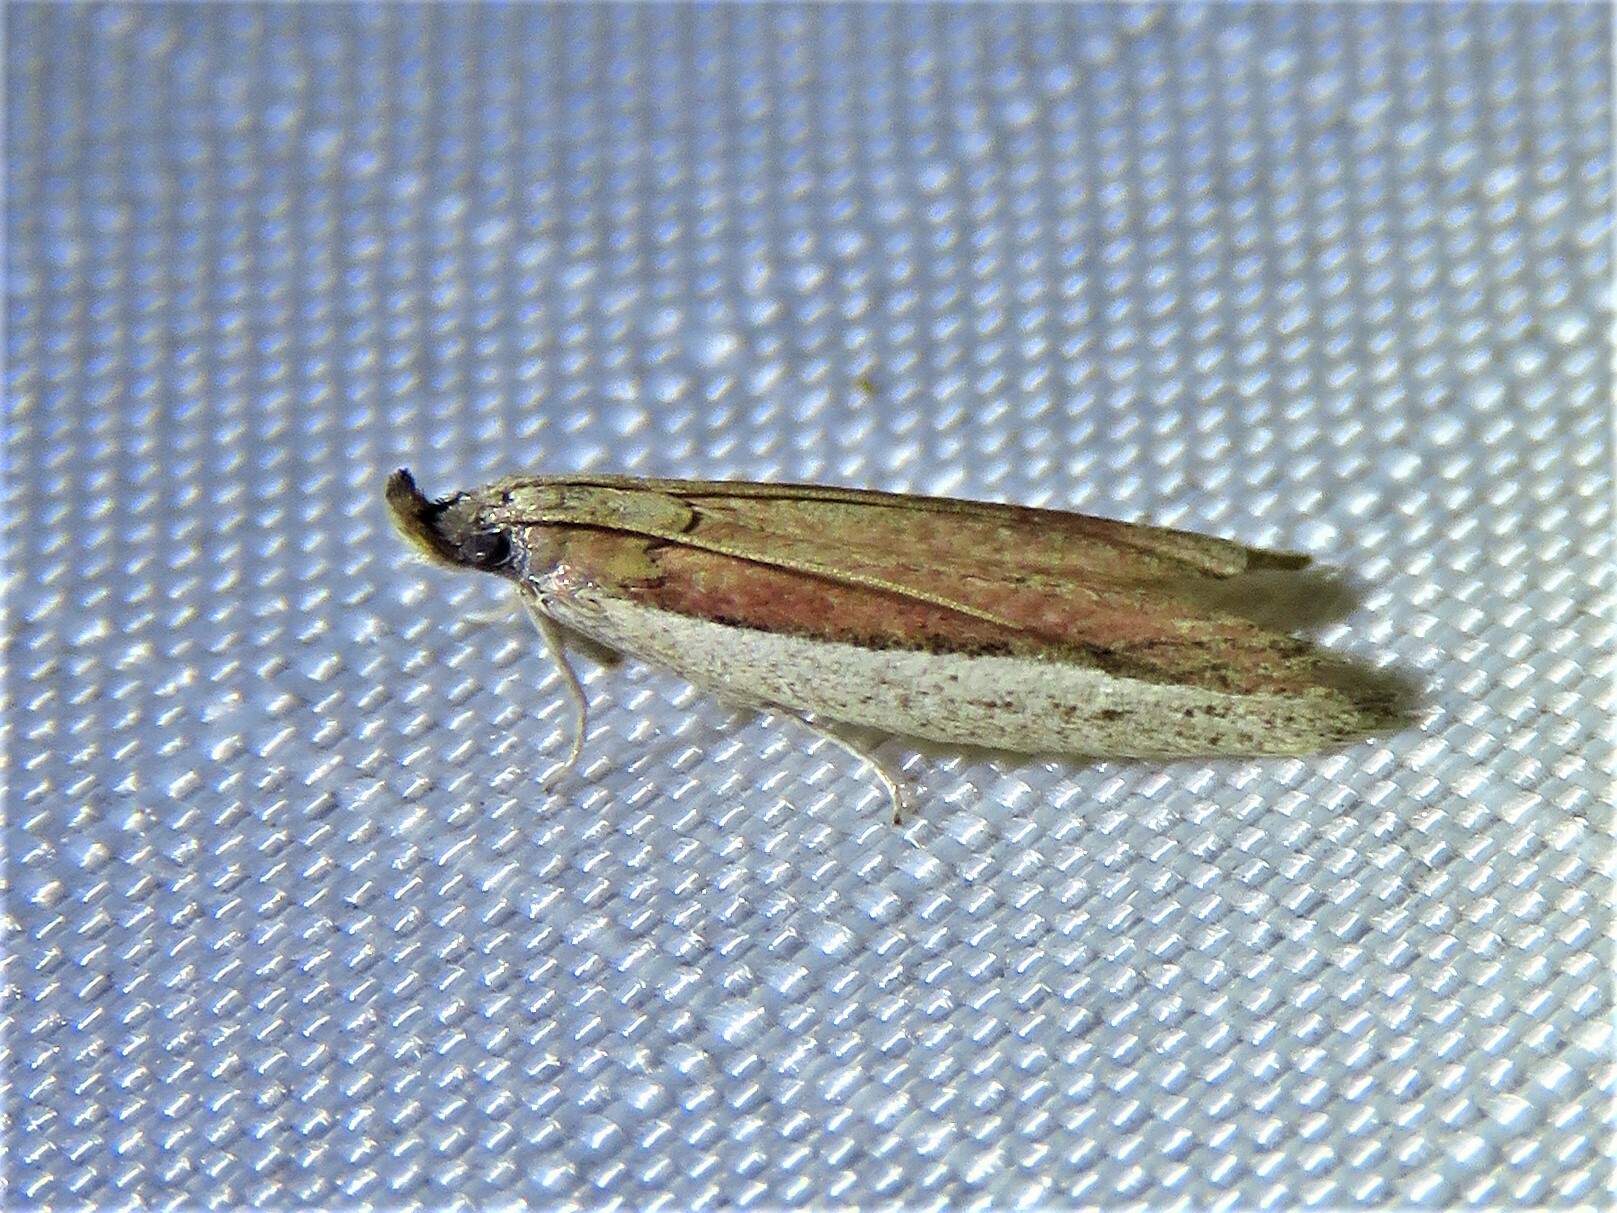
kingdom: Animalia
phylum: Arthropoda
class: Insecta
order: Lepidoptera
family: Pyralidae
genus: Tampa
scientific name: Tampa dimediatella
